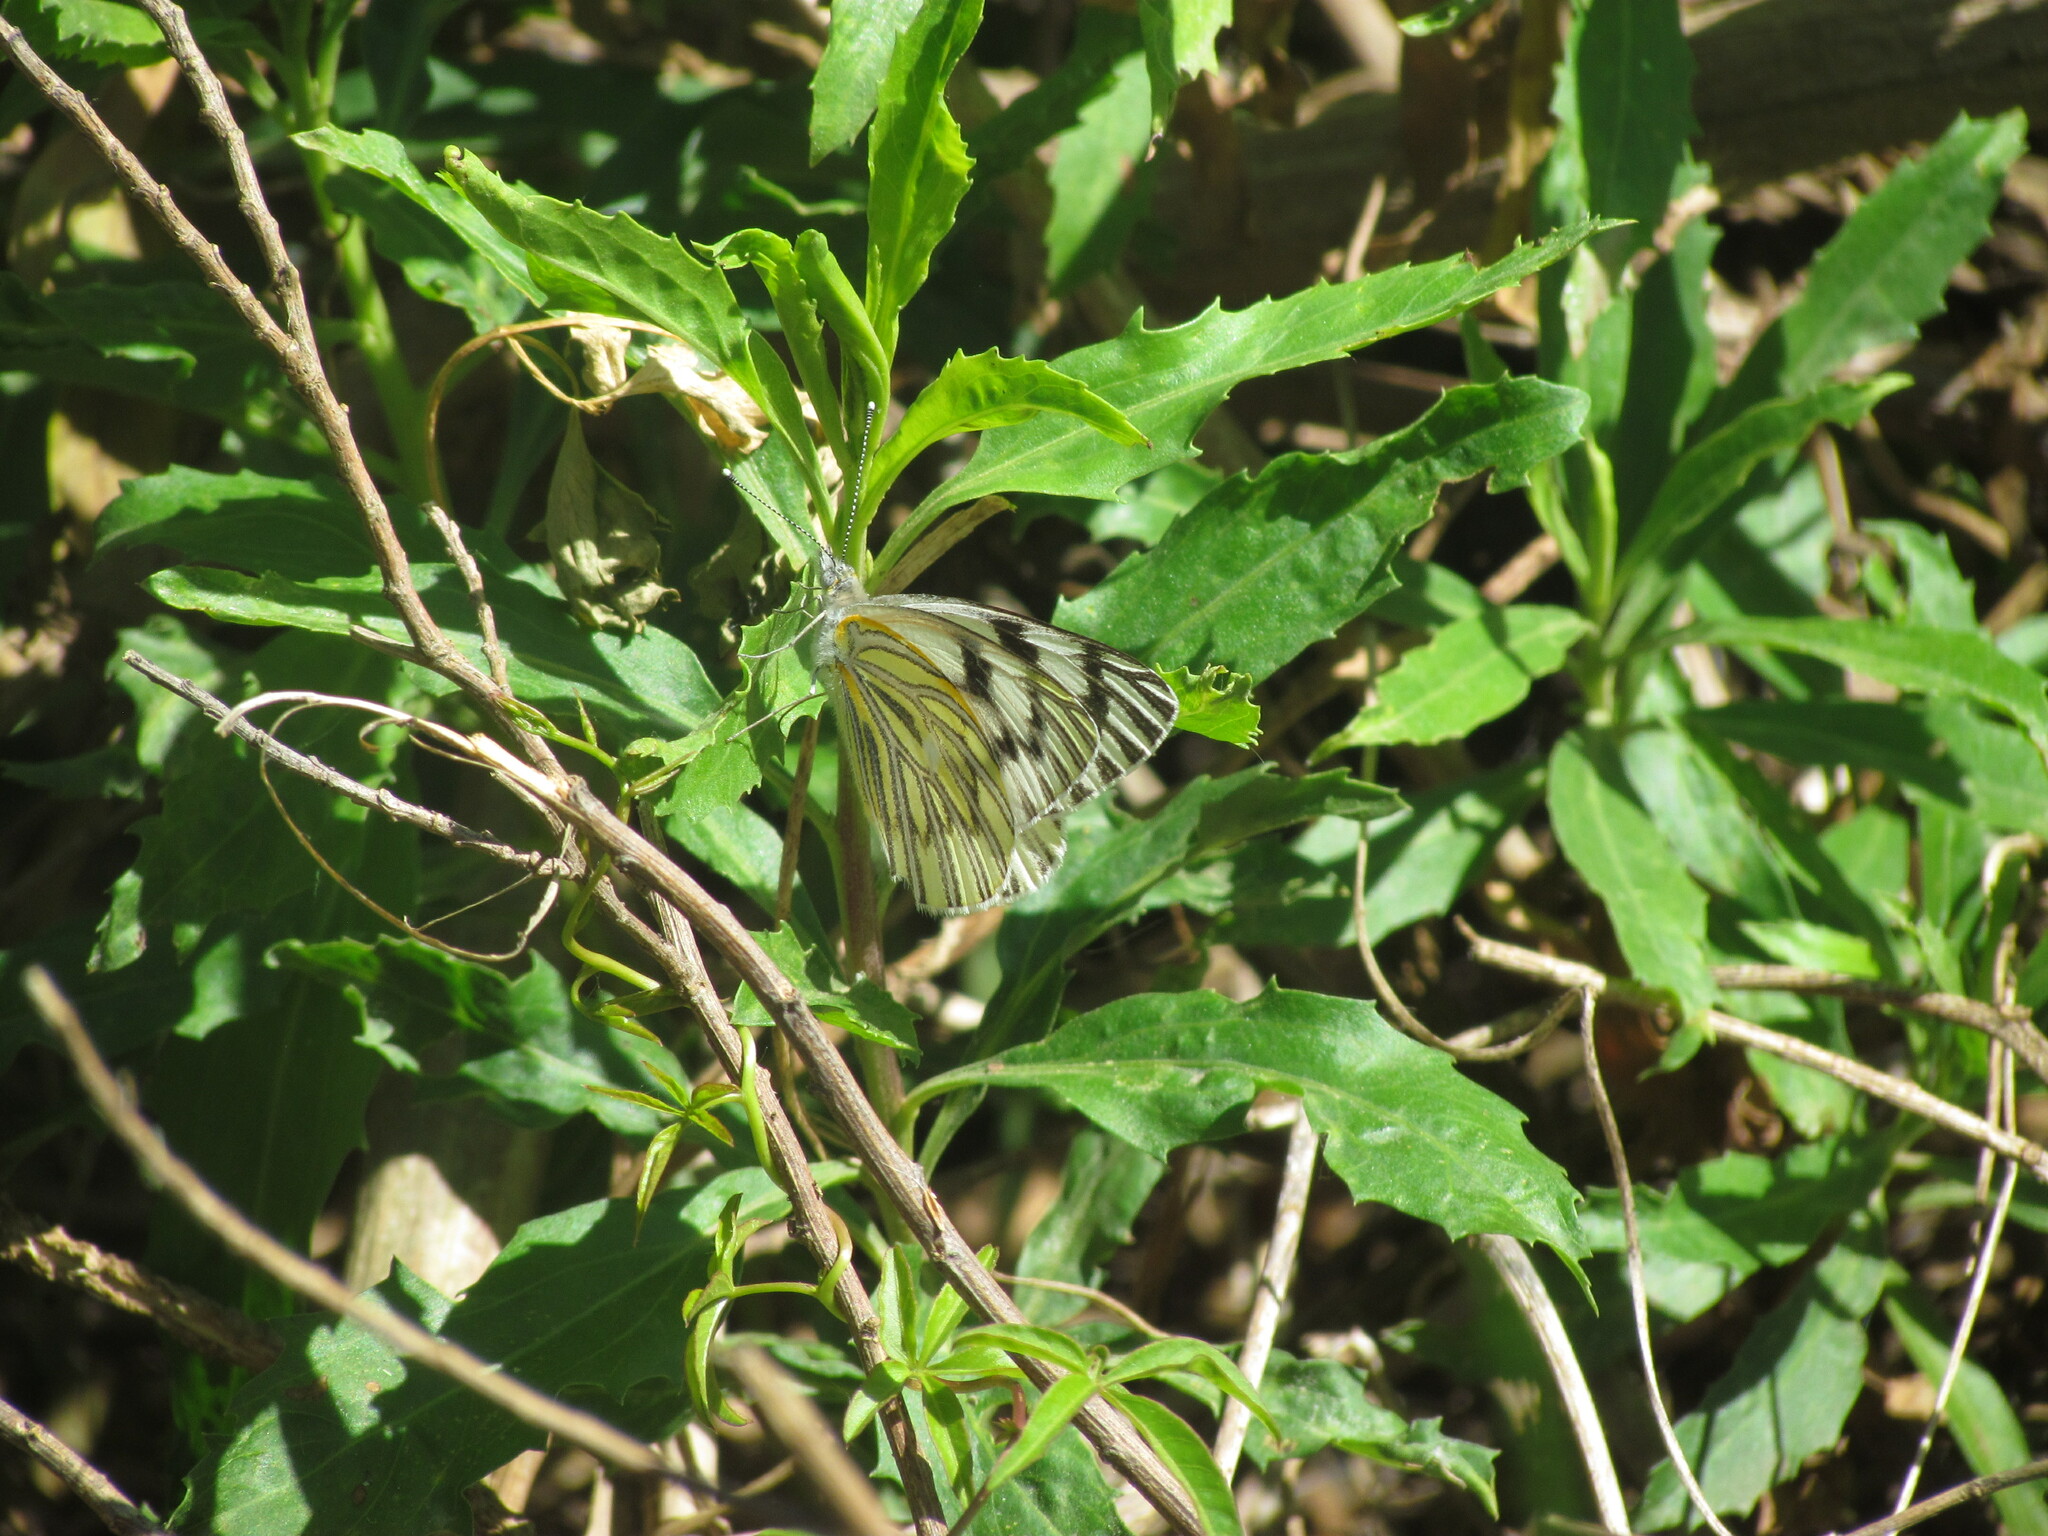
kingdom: Animalia
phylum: Arthropoda
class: Insecta
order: Lepidoptera
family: Pieridae
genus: Tatochila
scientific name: Tatochila mercedis
